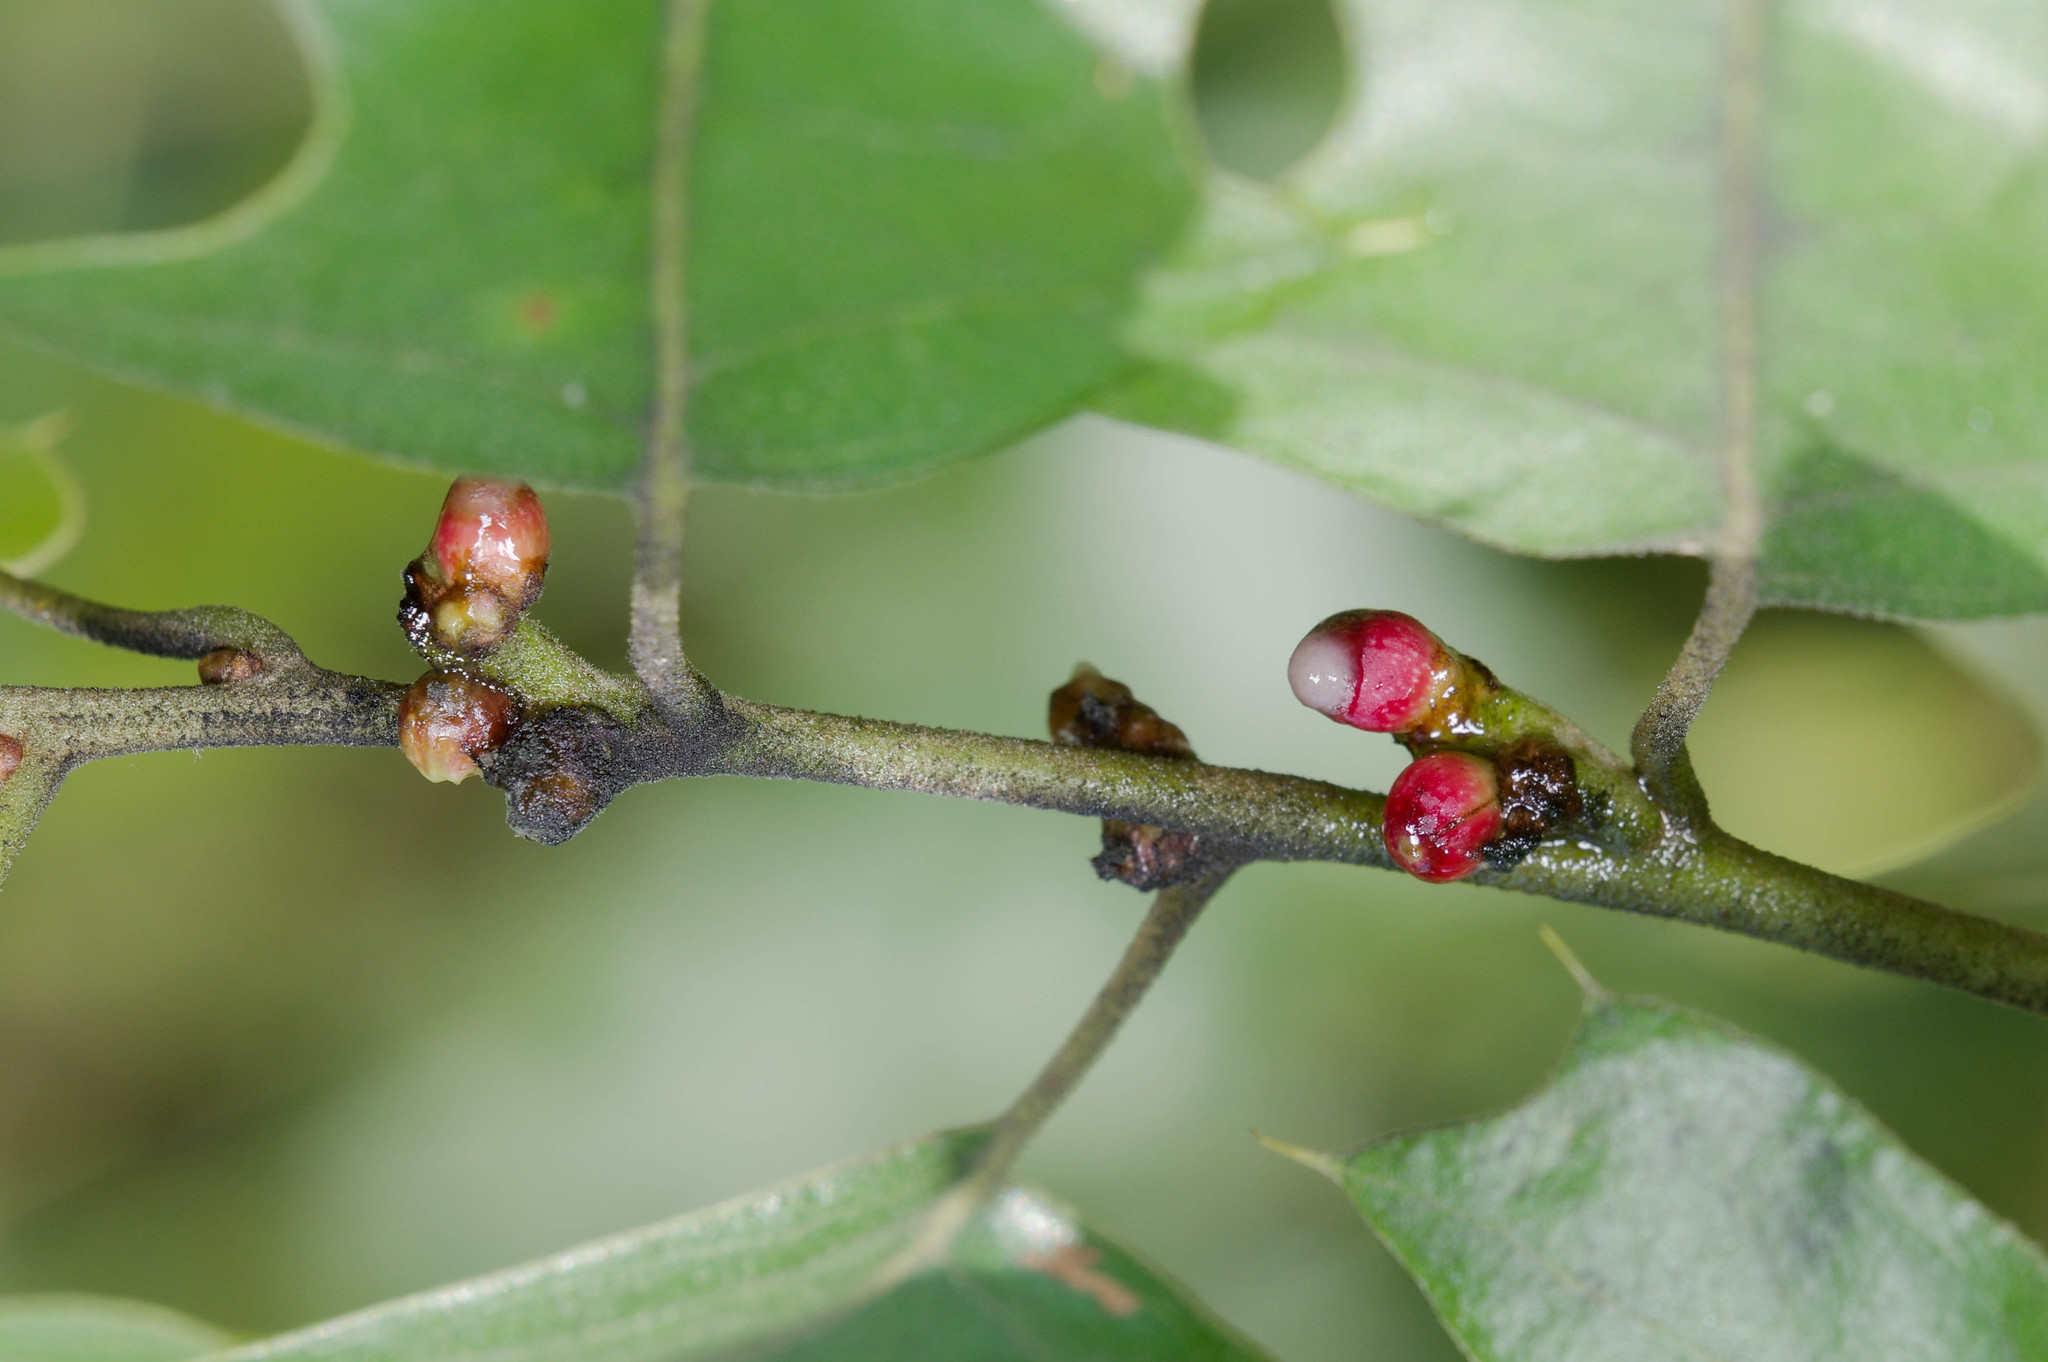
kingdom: Animalia
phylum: Arthropoda
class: Insecta
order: Hymenoptera
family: Cynipidae
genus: Callirhytis
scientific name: Callirhytis
